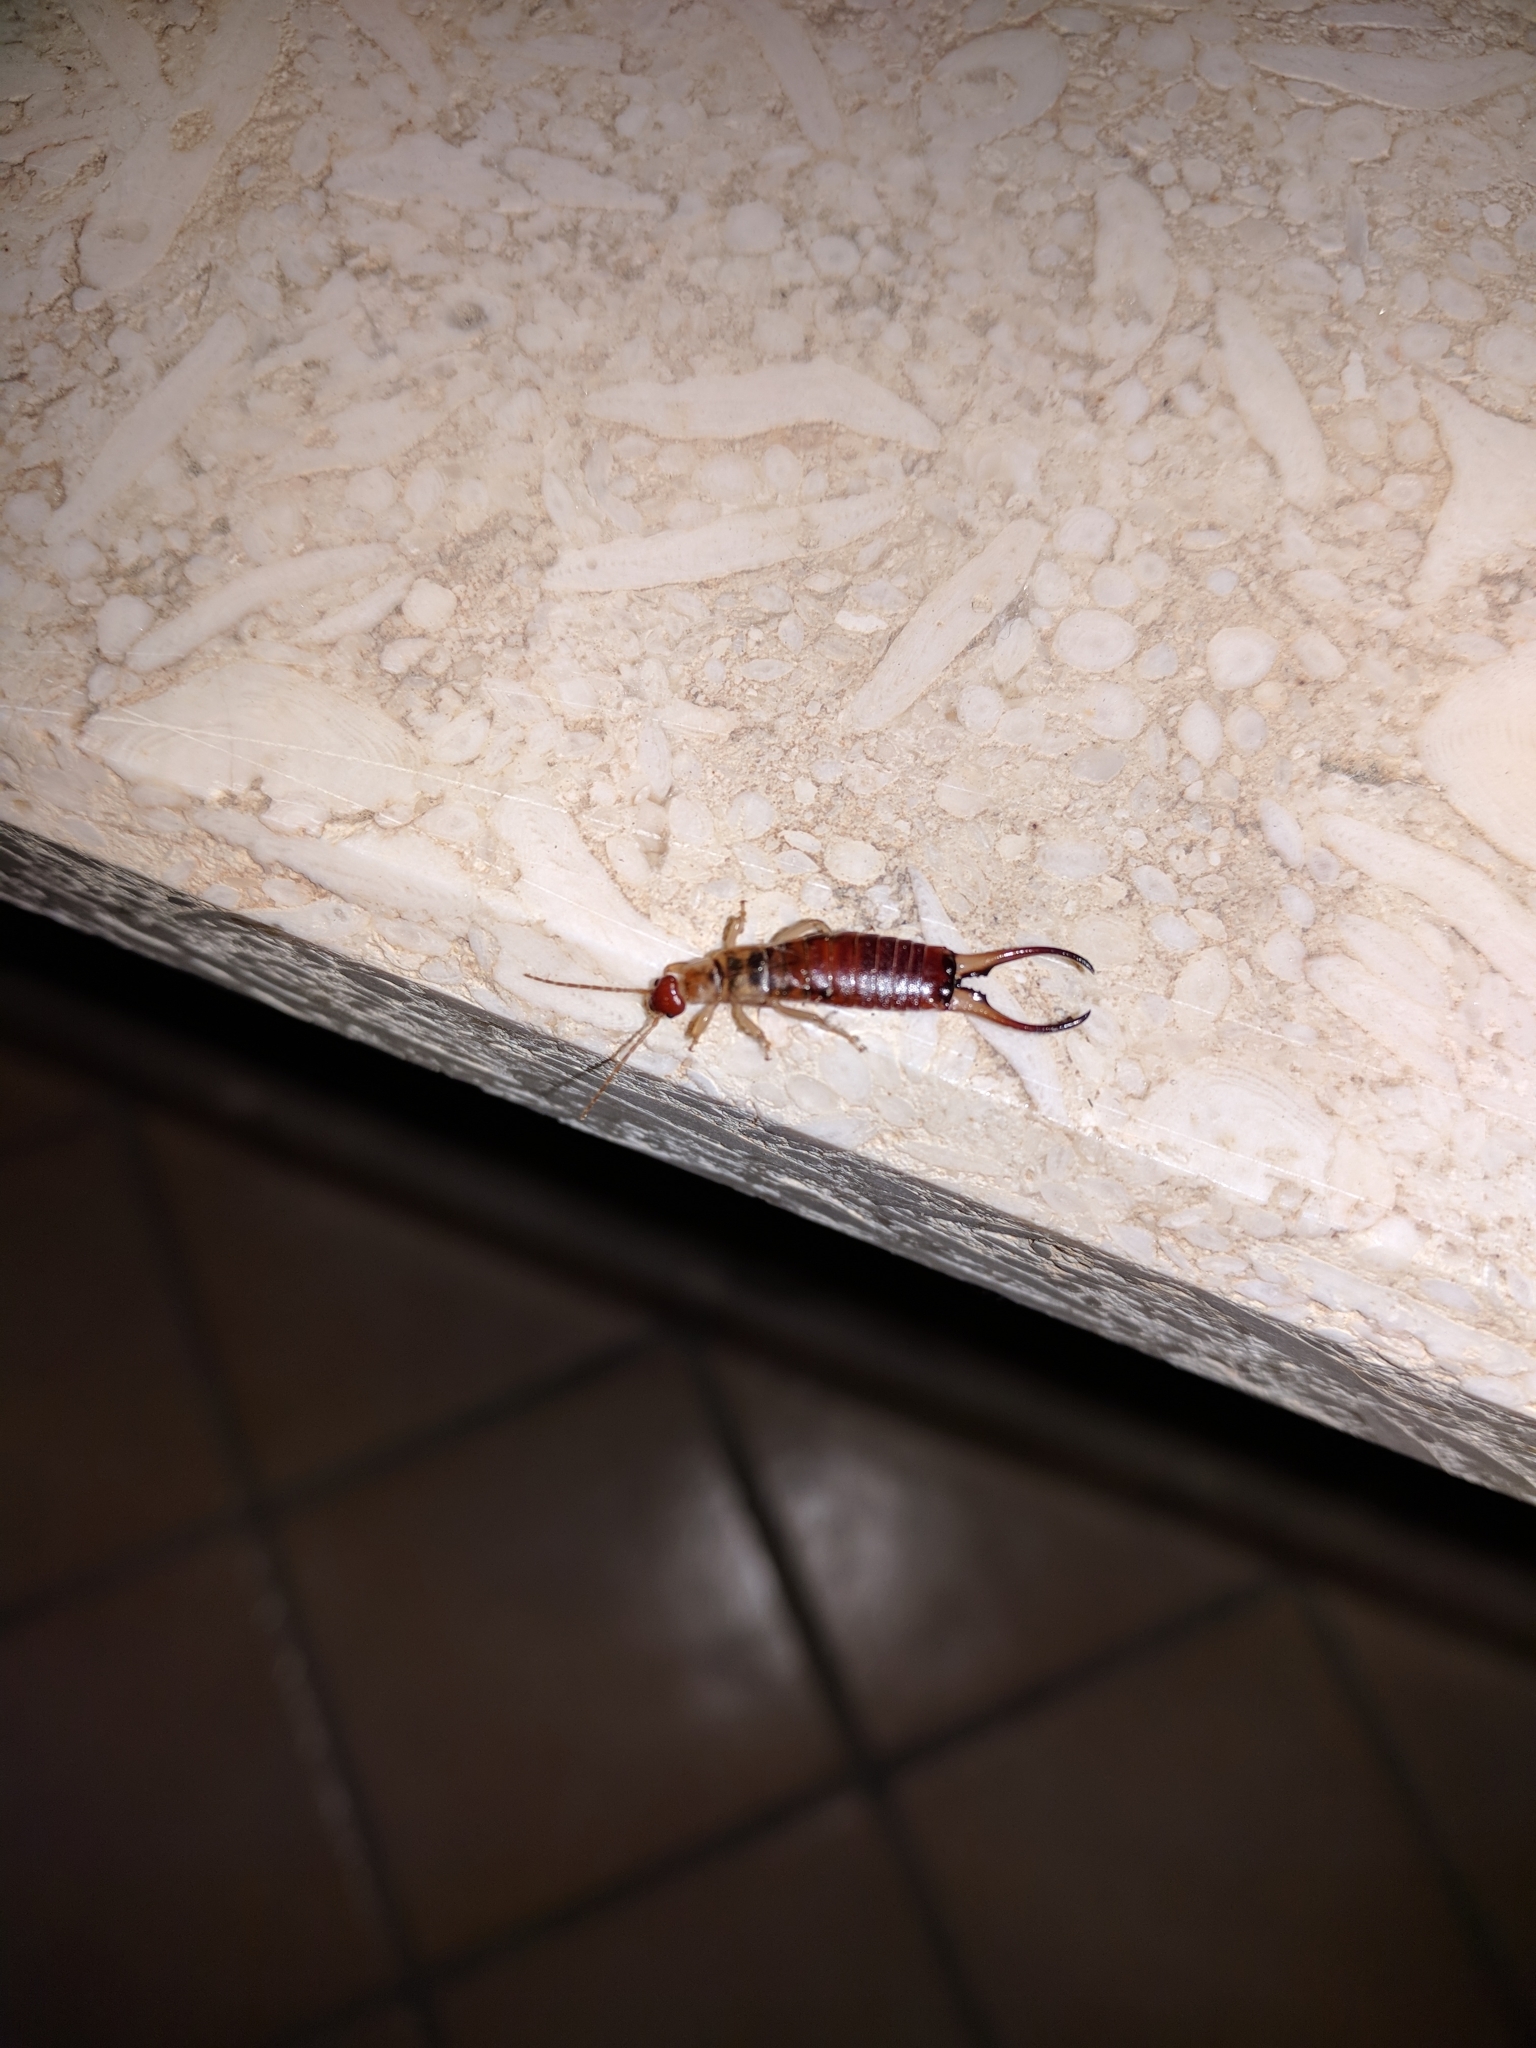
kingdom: Animalia
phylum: Arthropoda
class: Insecta
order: Dermaptera
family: Forficulidae
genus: Forficula
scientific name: Forficula decipiens
